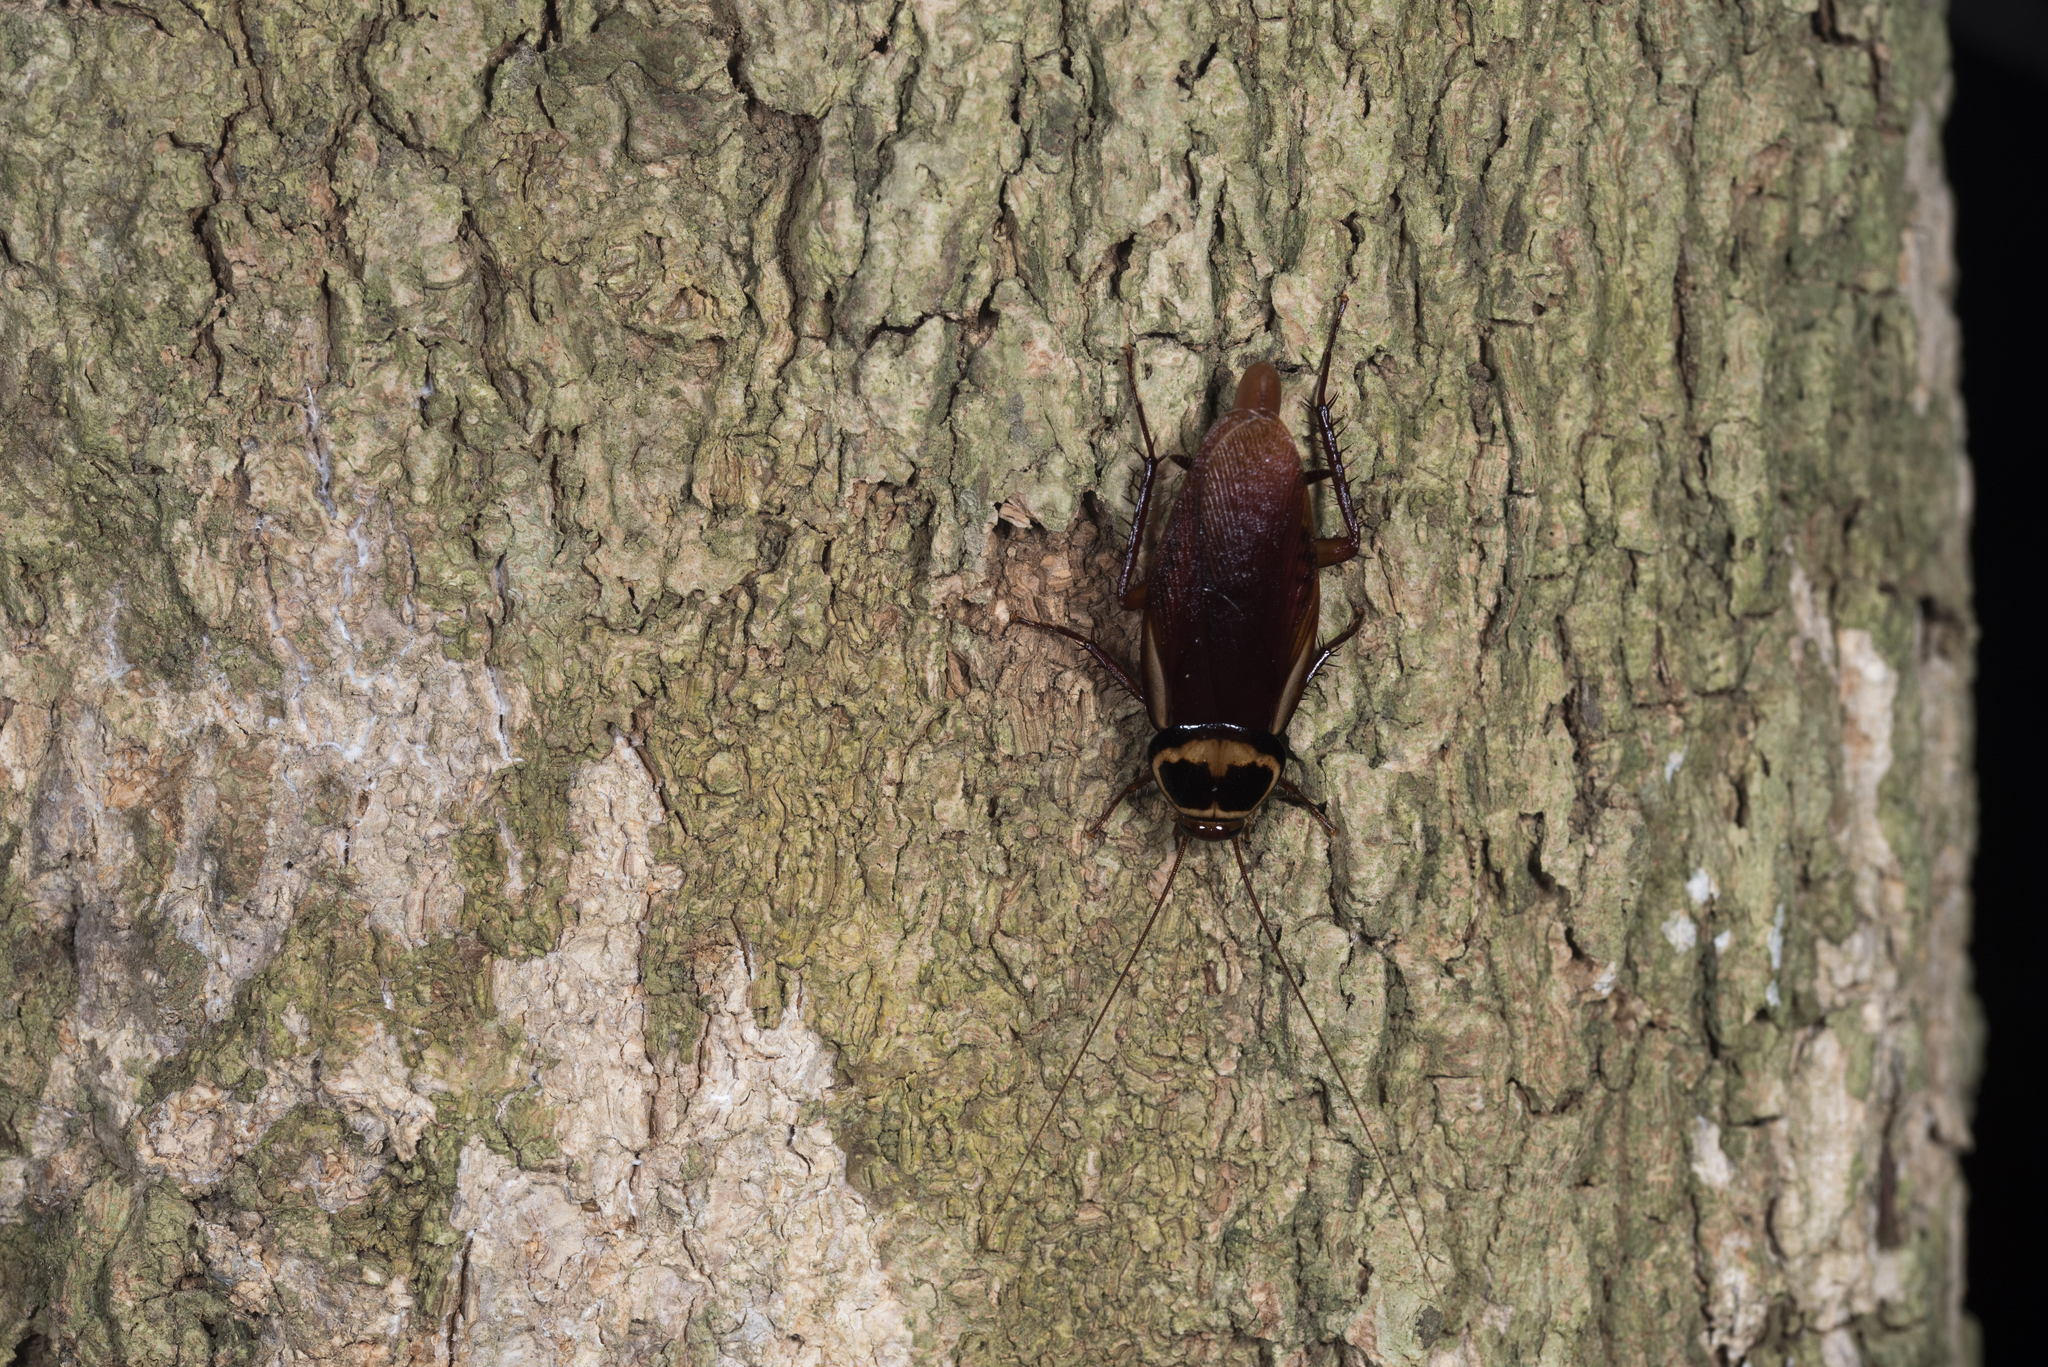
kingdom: Animalia
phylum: Arthropoda
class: Insecta
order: Blattodea
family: Blattidae
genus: Periplaneta
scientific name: Periplaneta australasiae
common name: Australian cockroach
